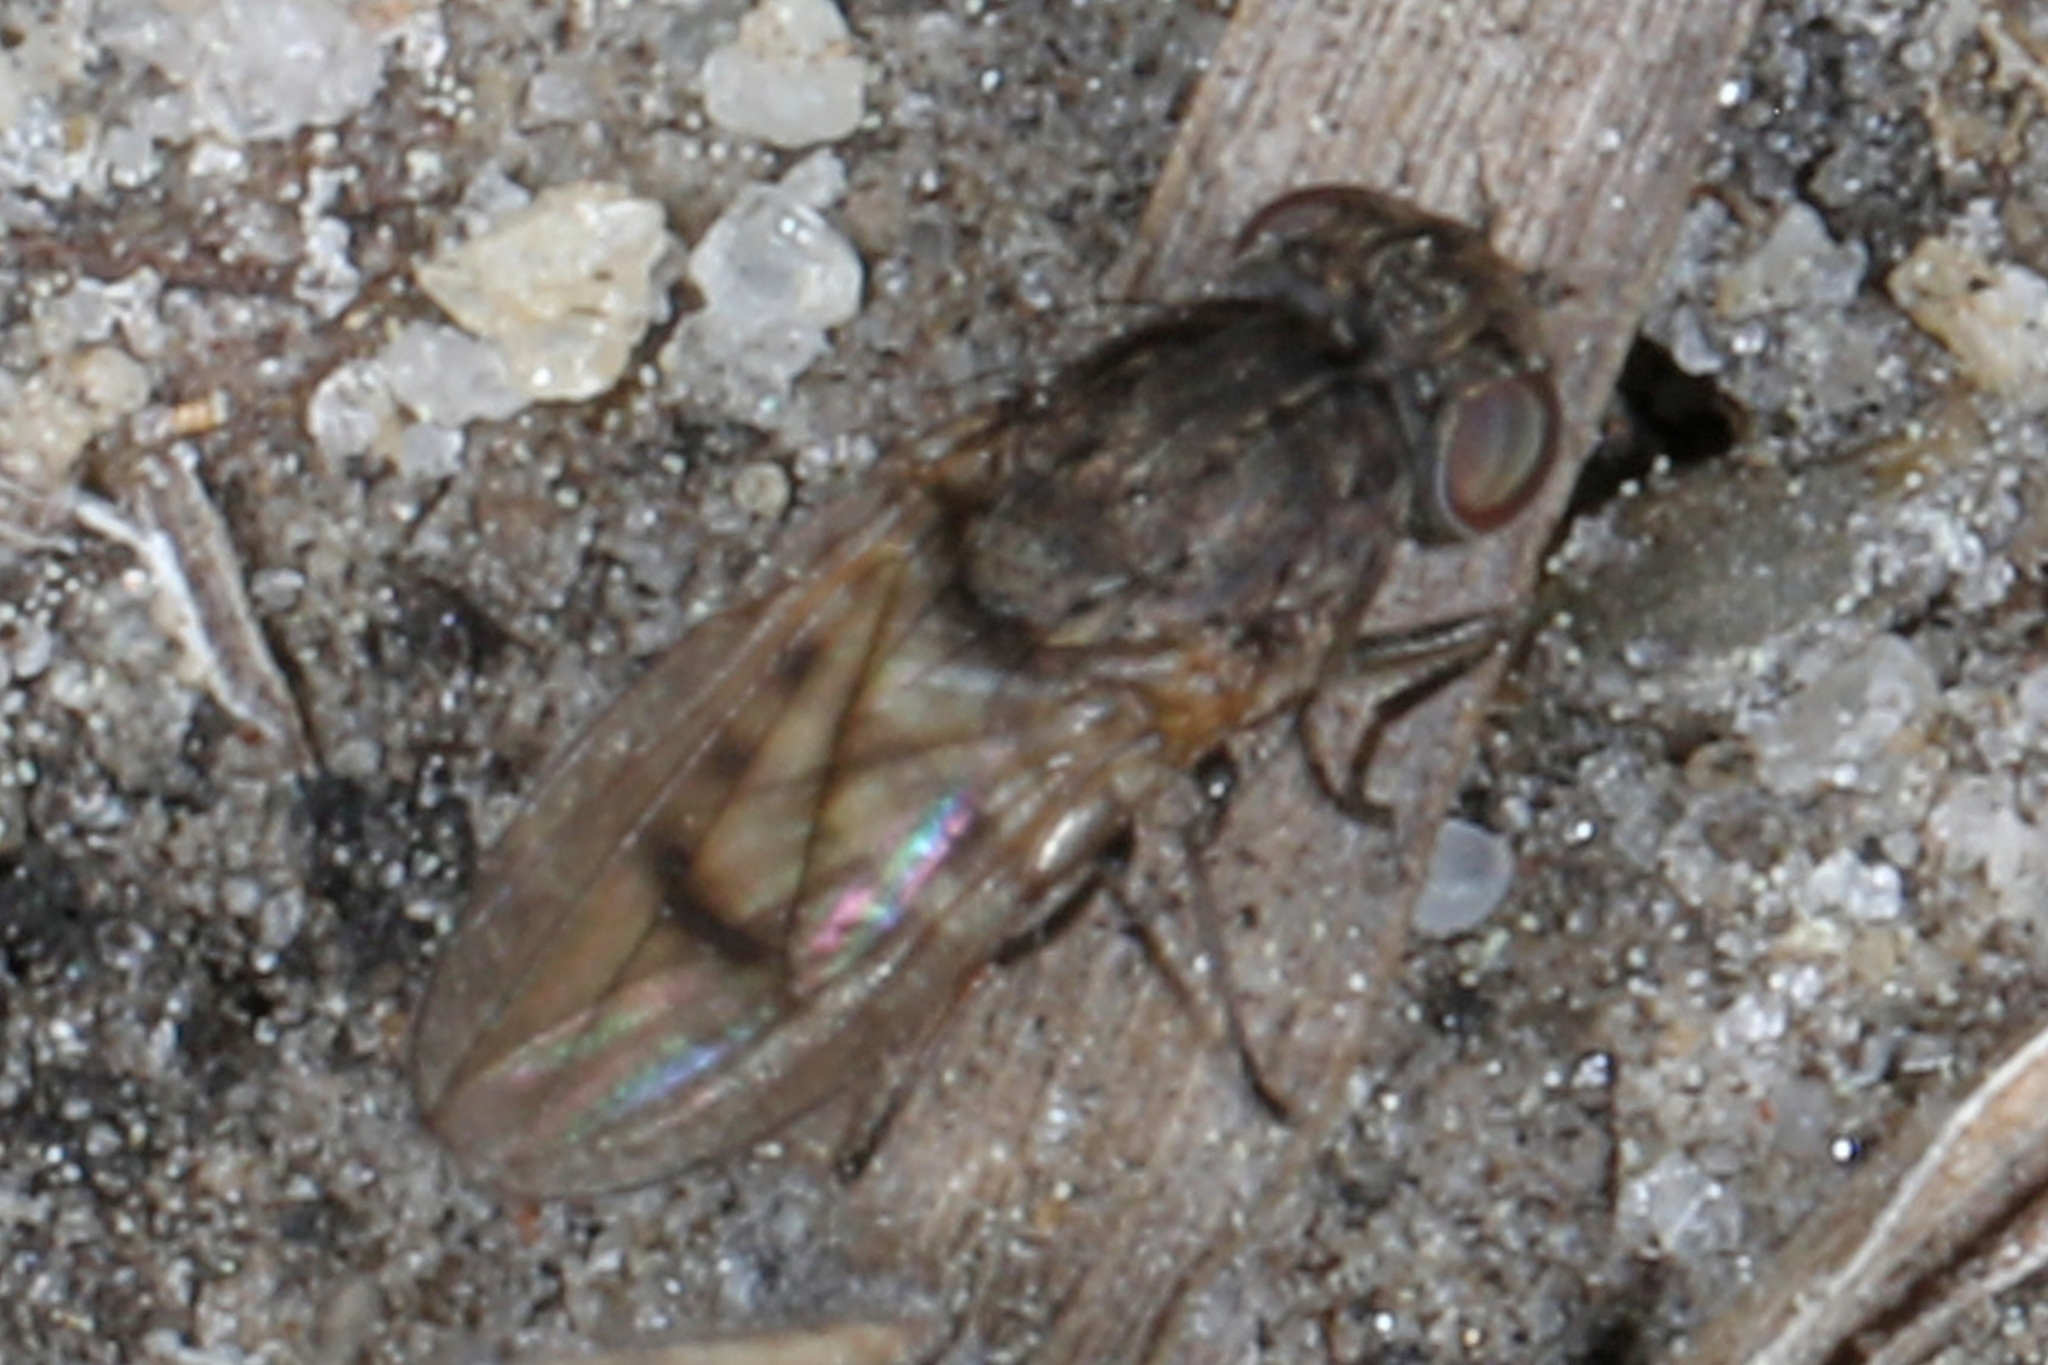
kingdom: Animalia
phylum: Arthropoda
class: Insecta
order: Diptera
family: Ephydridae
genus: Paralimna
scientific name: Paralimna punctipennis
